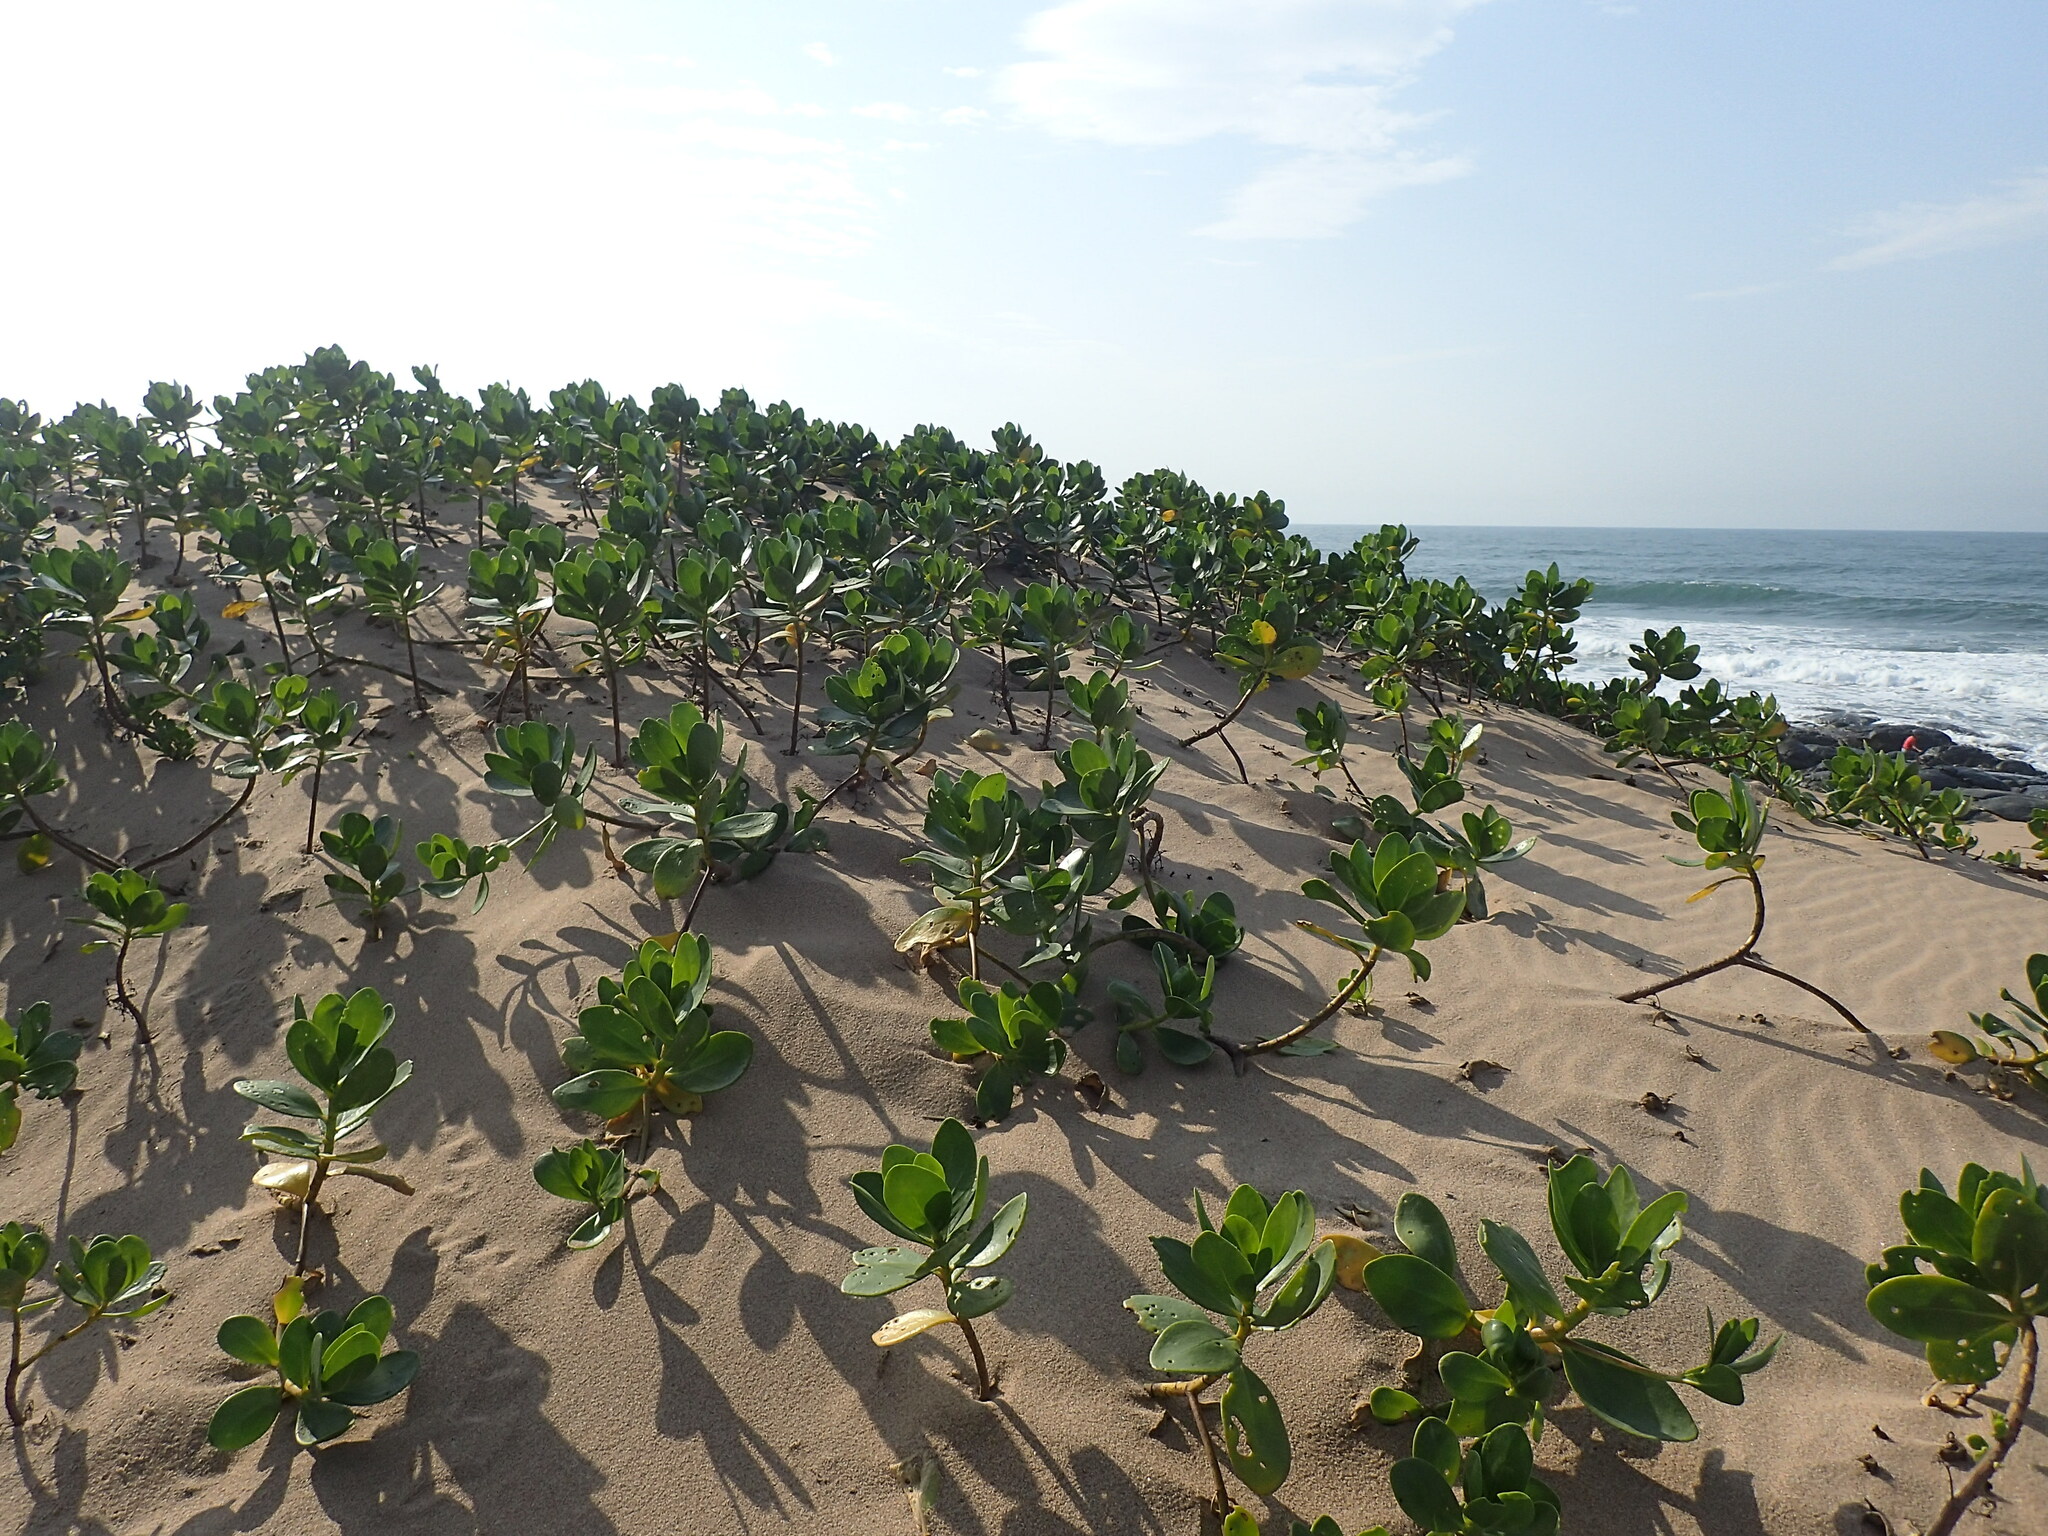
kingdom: Plantae
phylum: Tracheophyta
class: Magnoliopsida
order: Asterales
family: Goodeniaceae
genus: Scaevola
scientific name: Scaevola plumieri
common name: Gull feed
